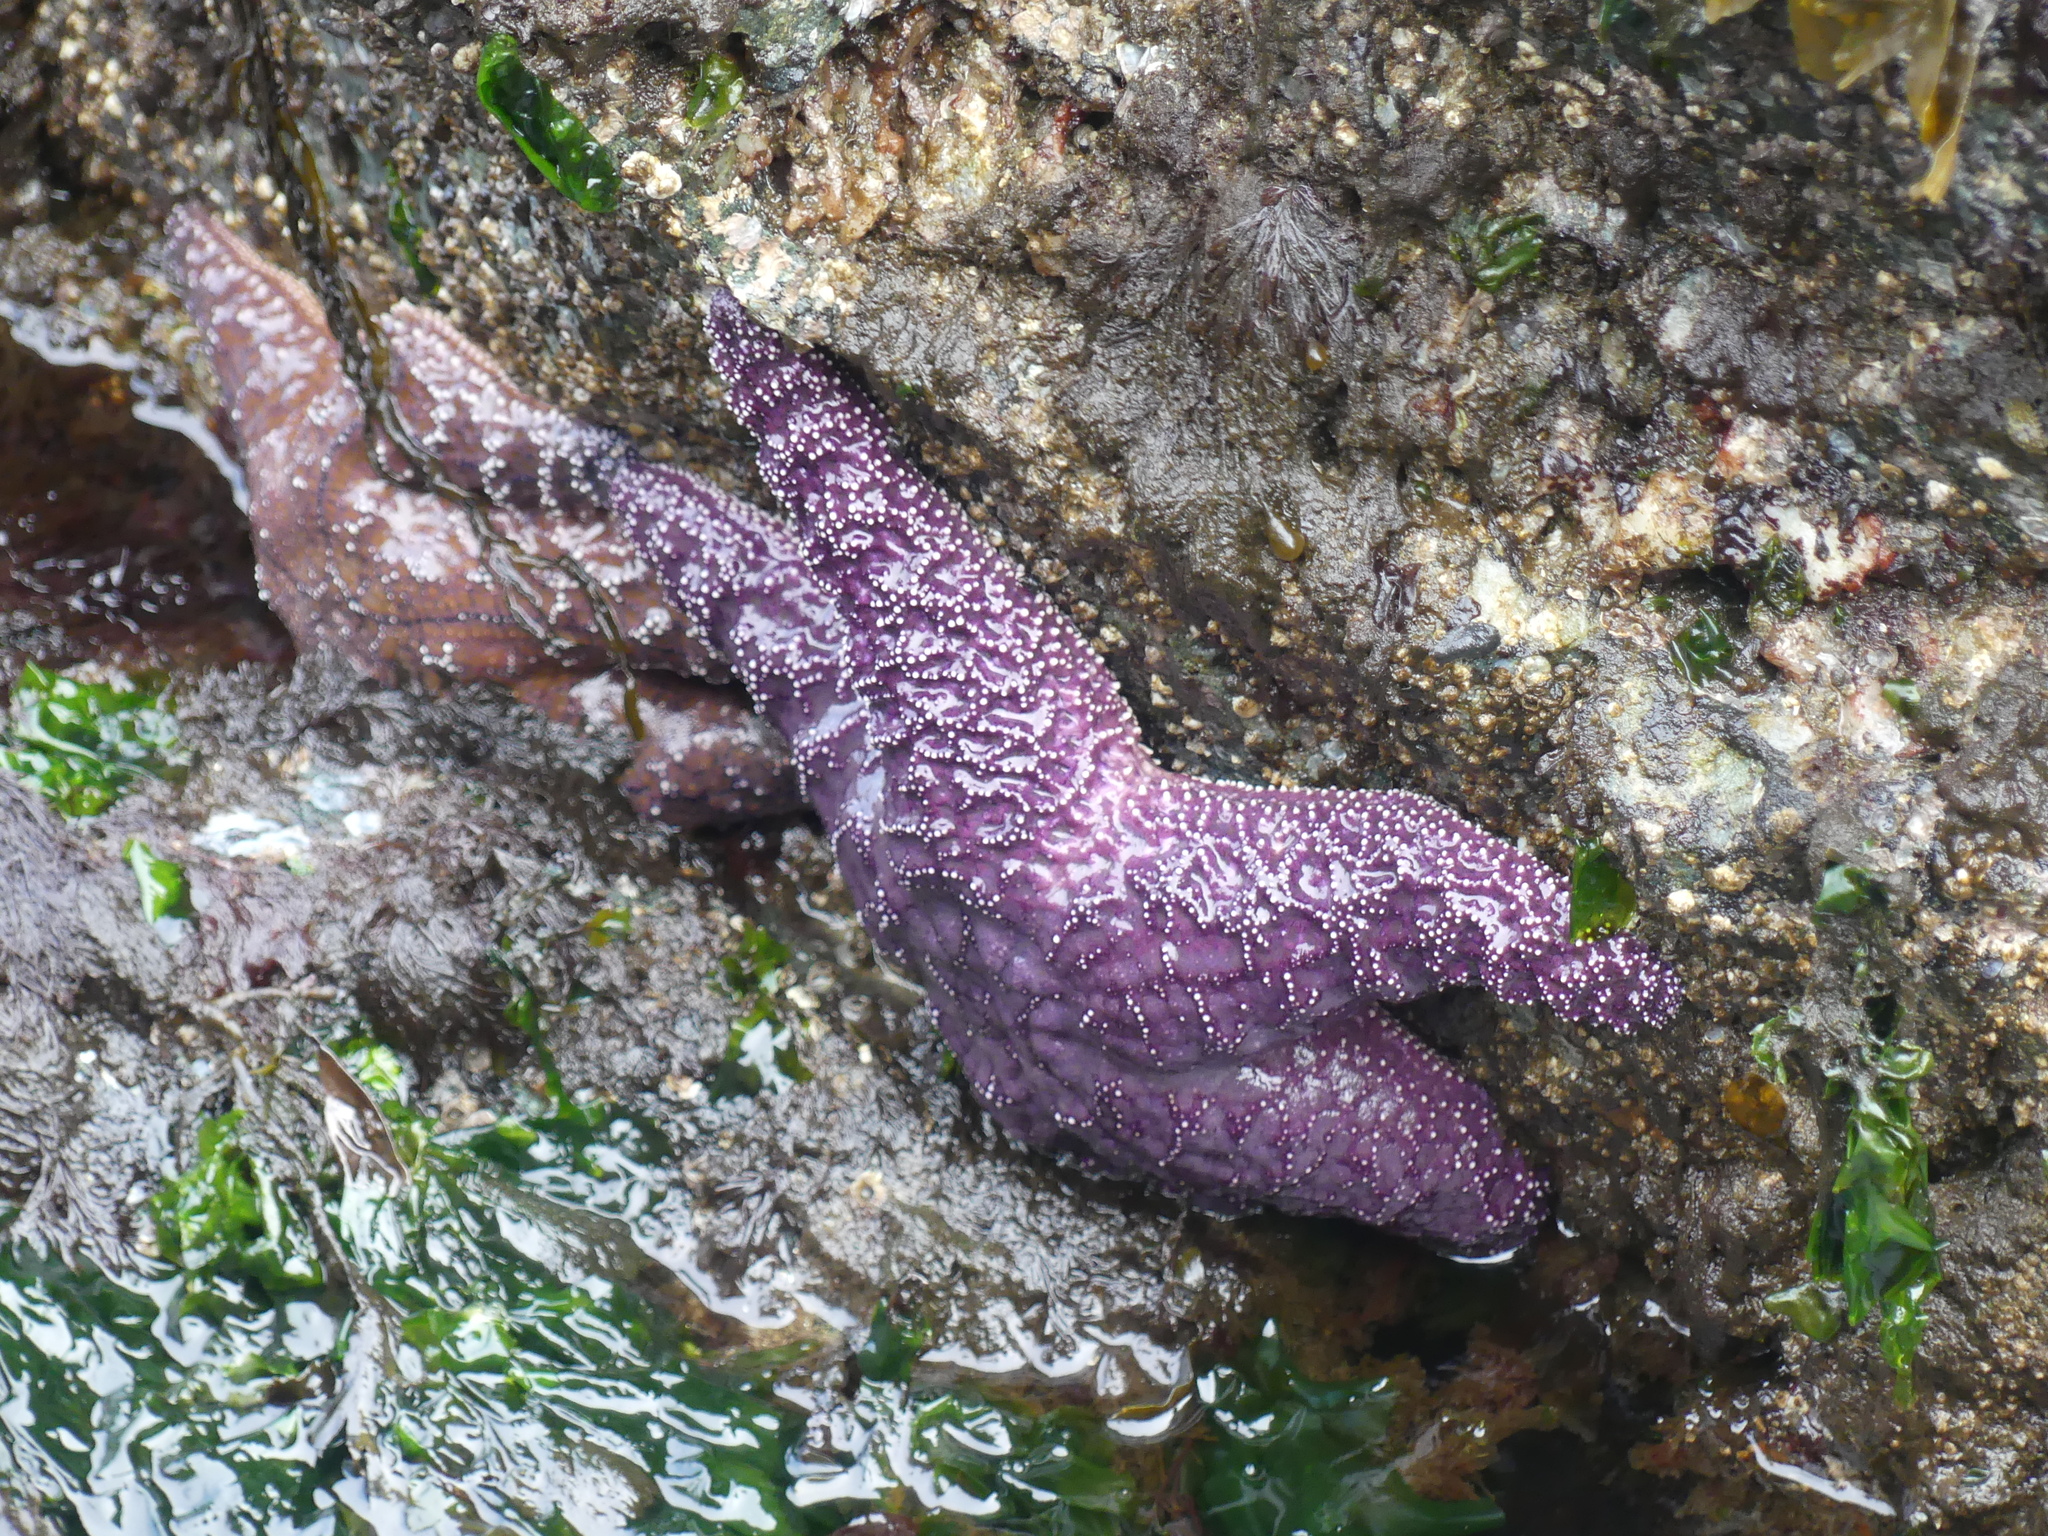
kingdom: Animalia
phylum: Echinodermata
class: Asteroidea
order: Forcipulatida
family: Asteriidae
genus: Pisaster
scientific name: Pisaster ochraceus
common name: Ochre stars
